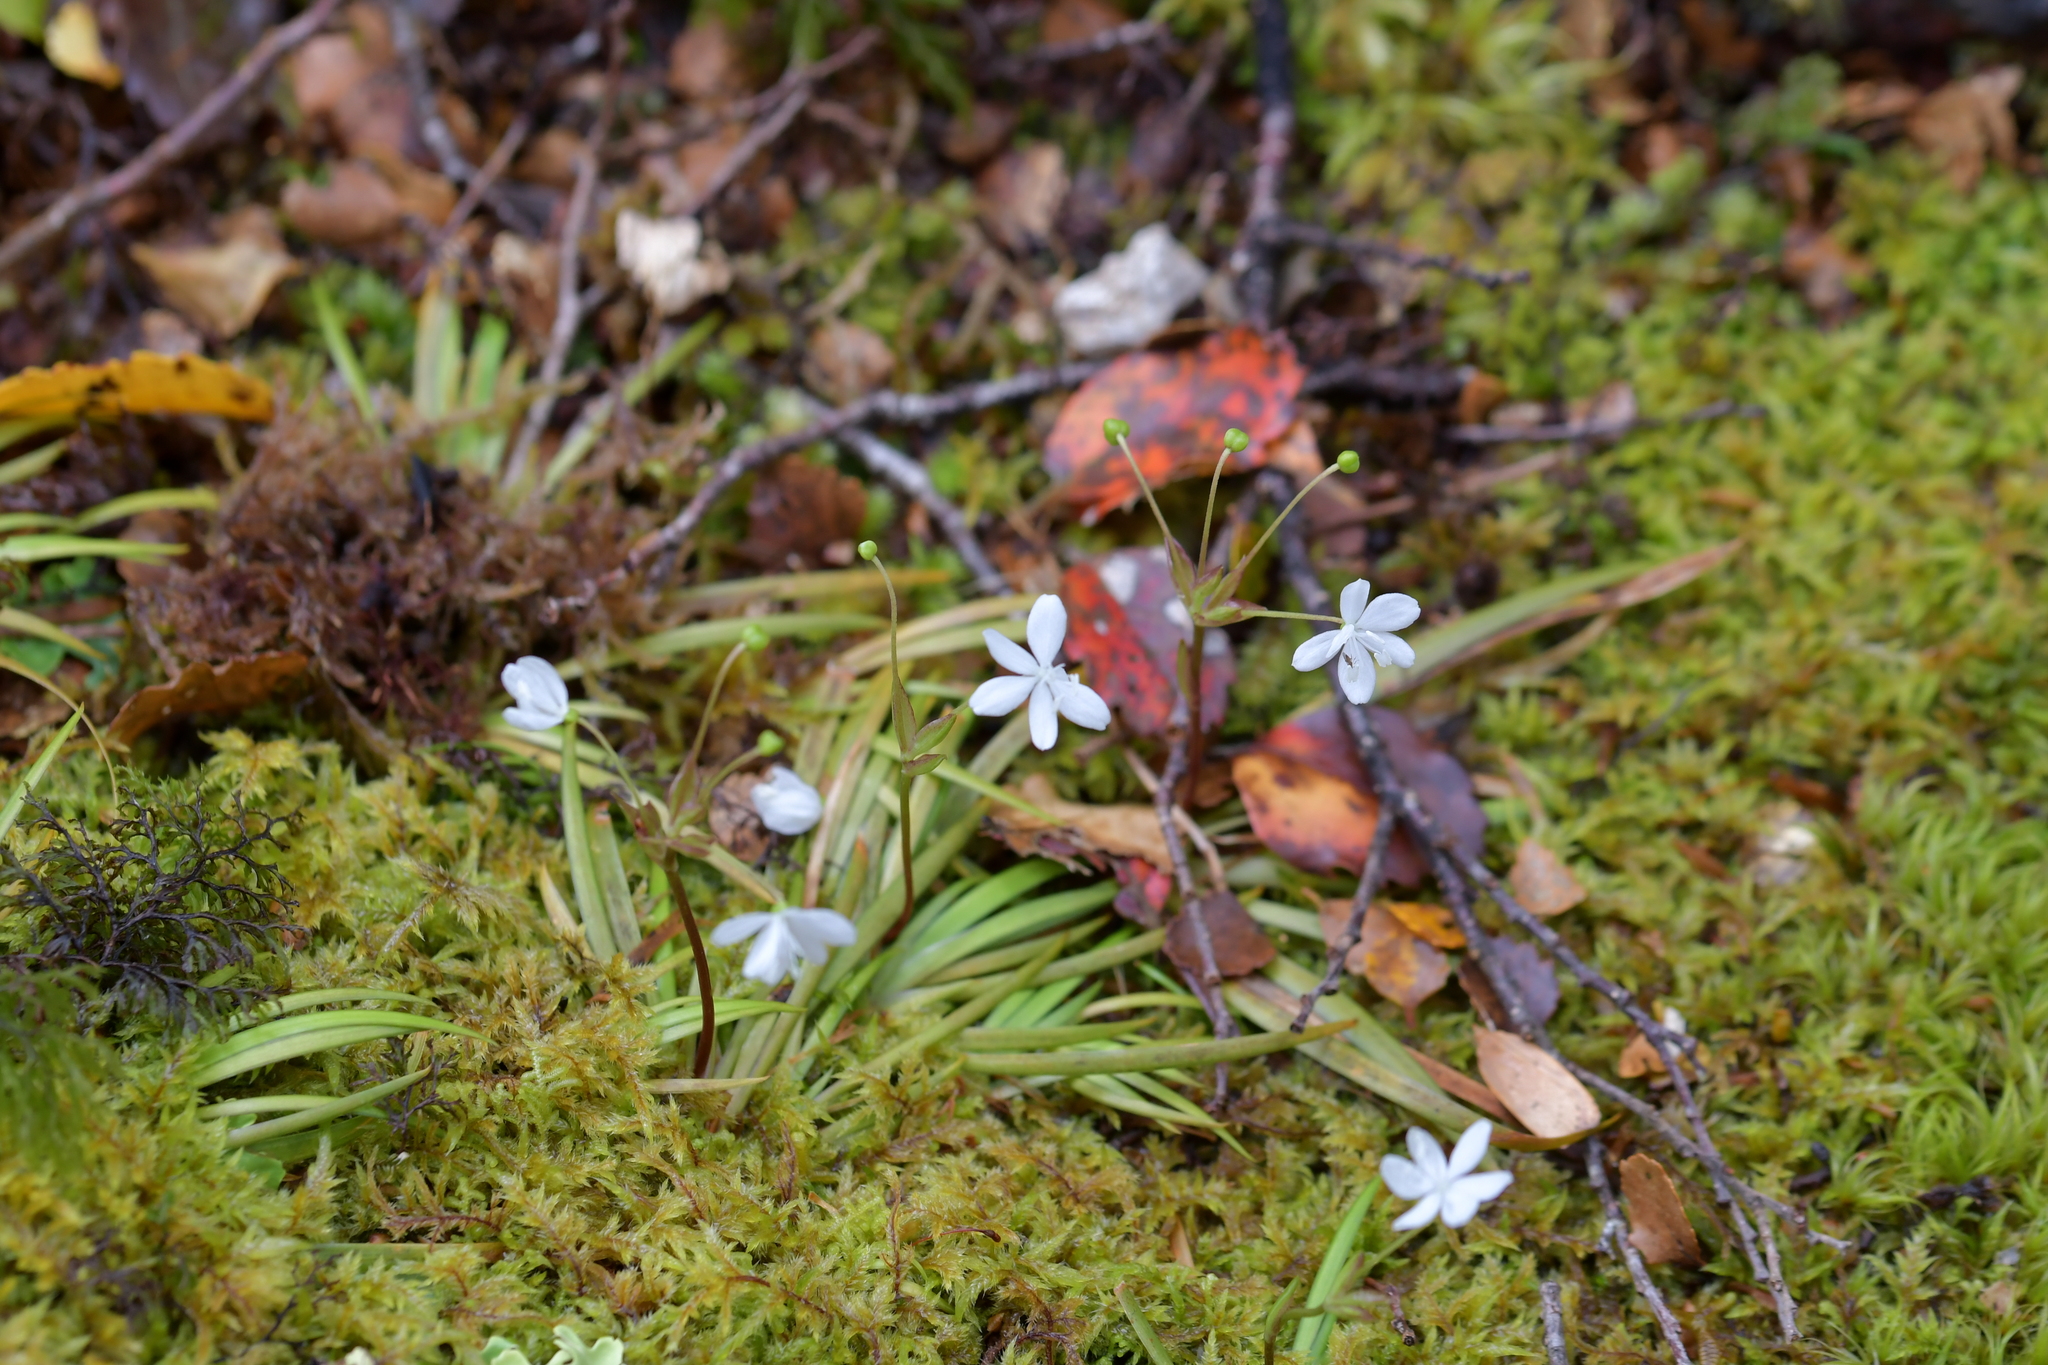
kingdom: Plantae
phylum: Tracheophyta
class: Liliopsida
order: Asparagales
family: Iridaceae
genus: Libertia
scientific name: Libertia micrantha
